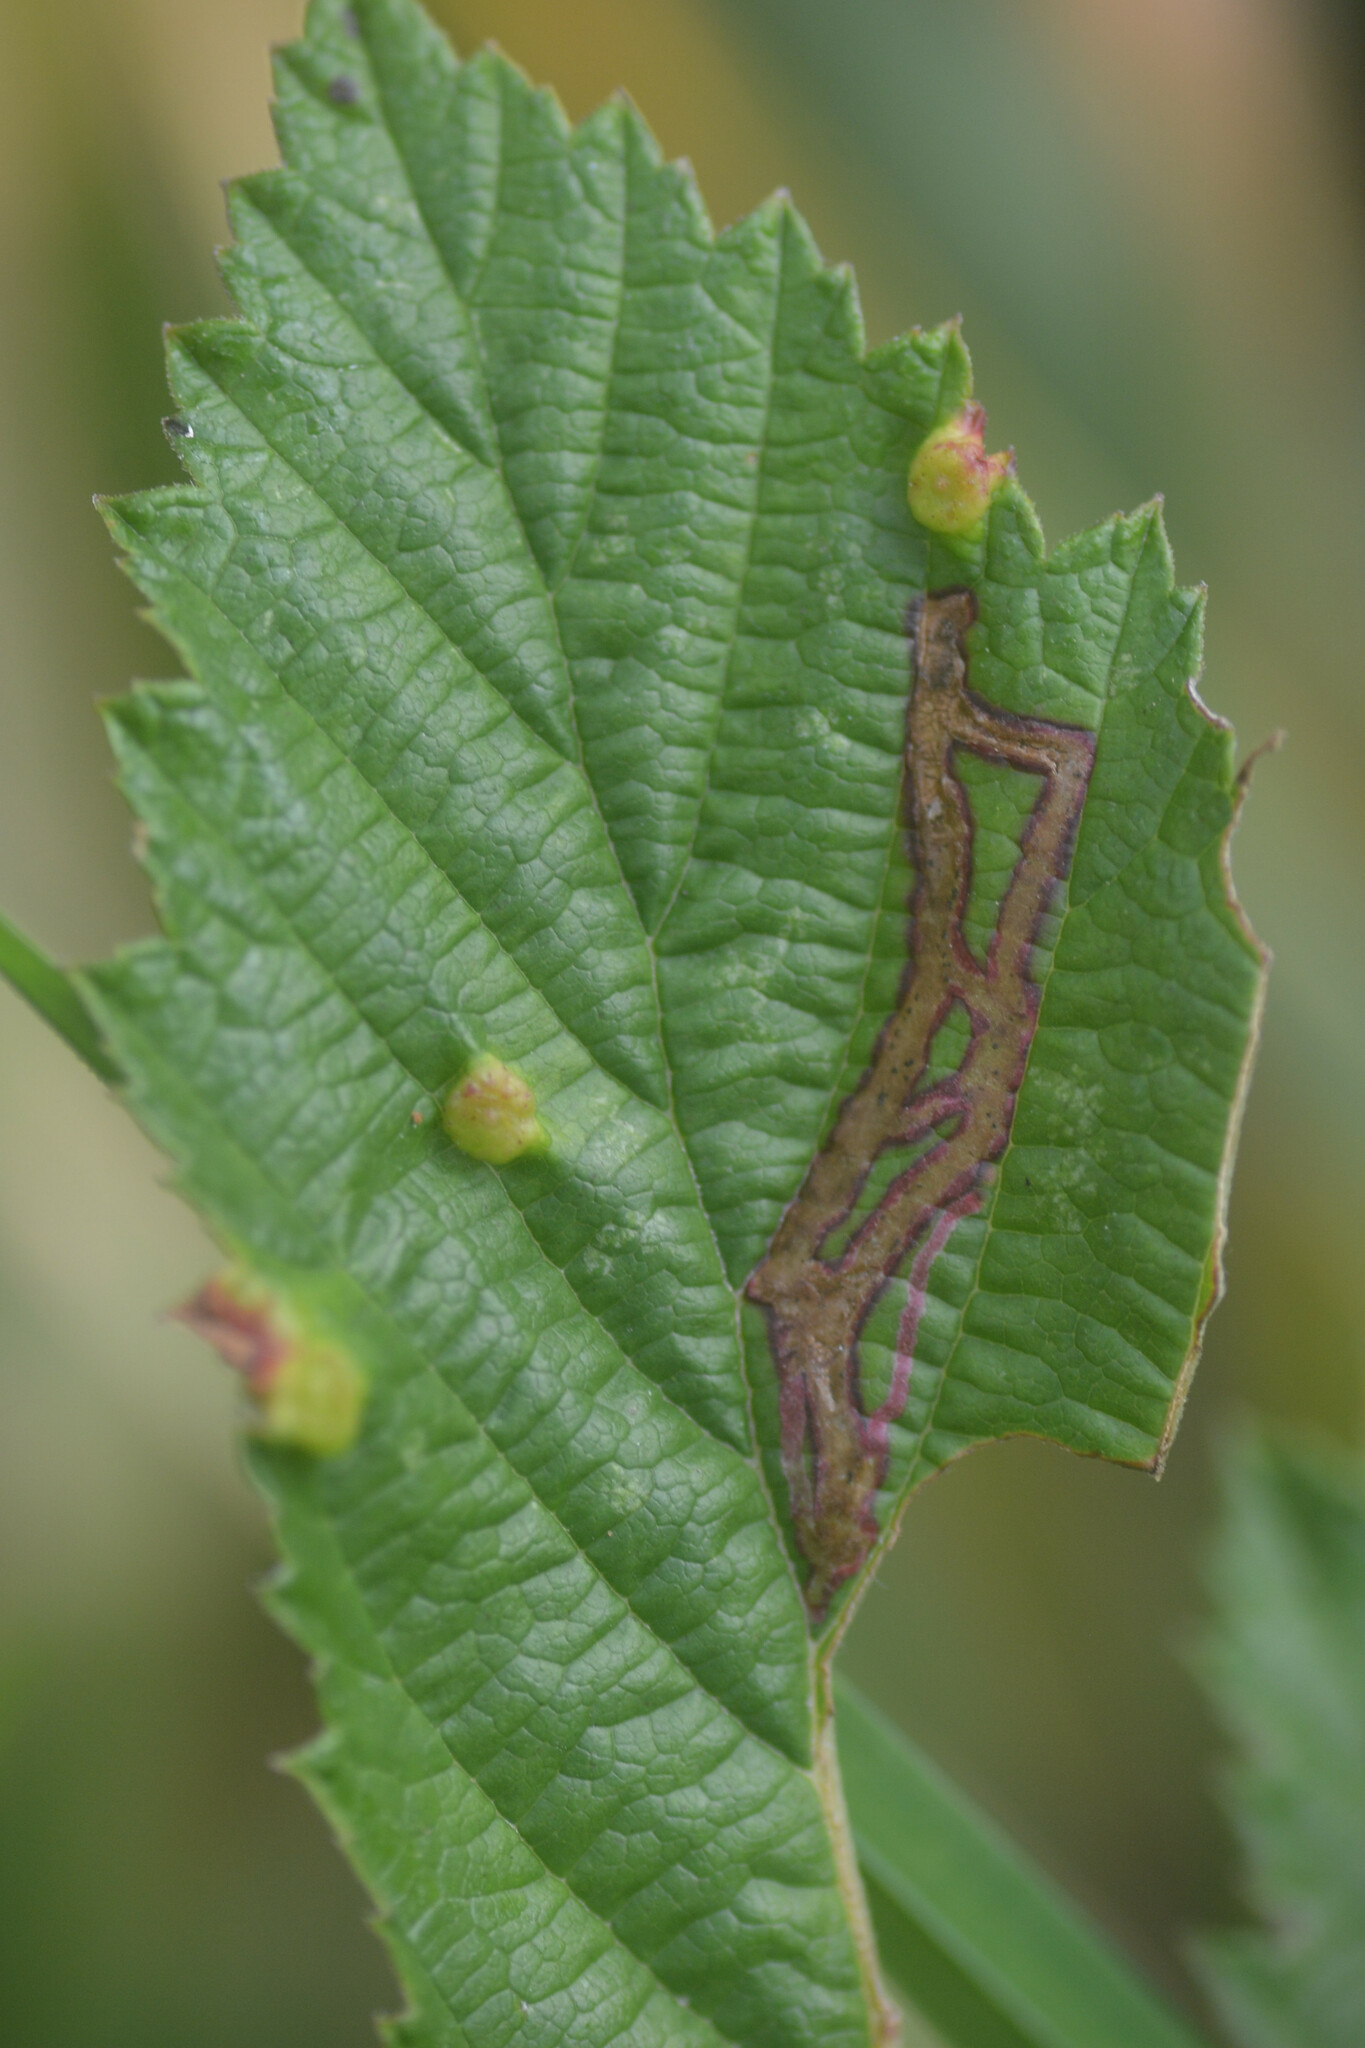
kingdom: Animalia
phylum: Arthropoda
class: Insecta
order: Diptera
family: Agromyzidae
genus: Agromyza
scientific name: Agromyza filipendulae
